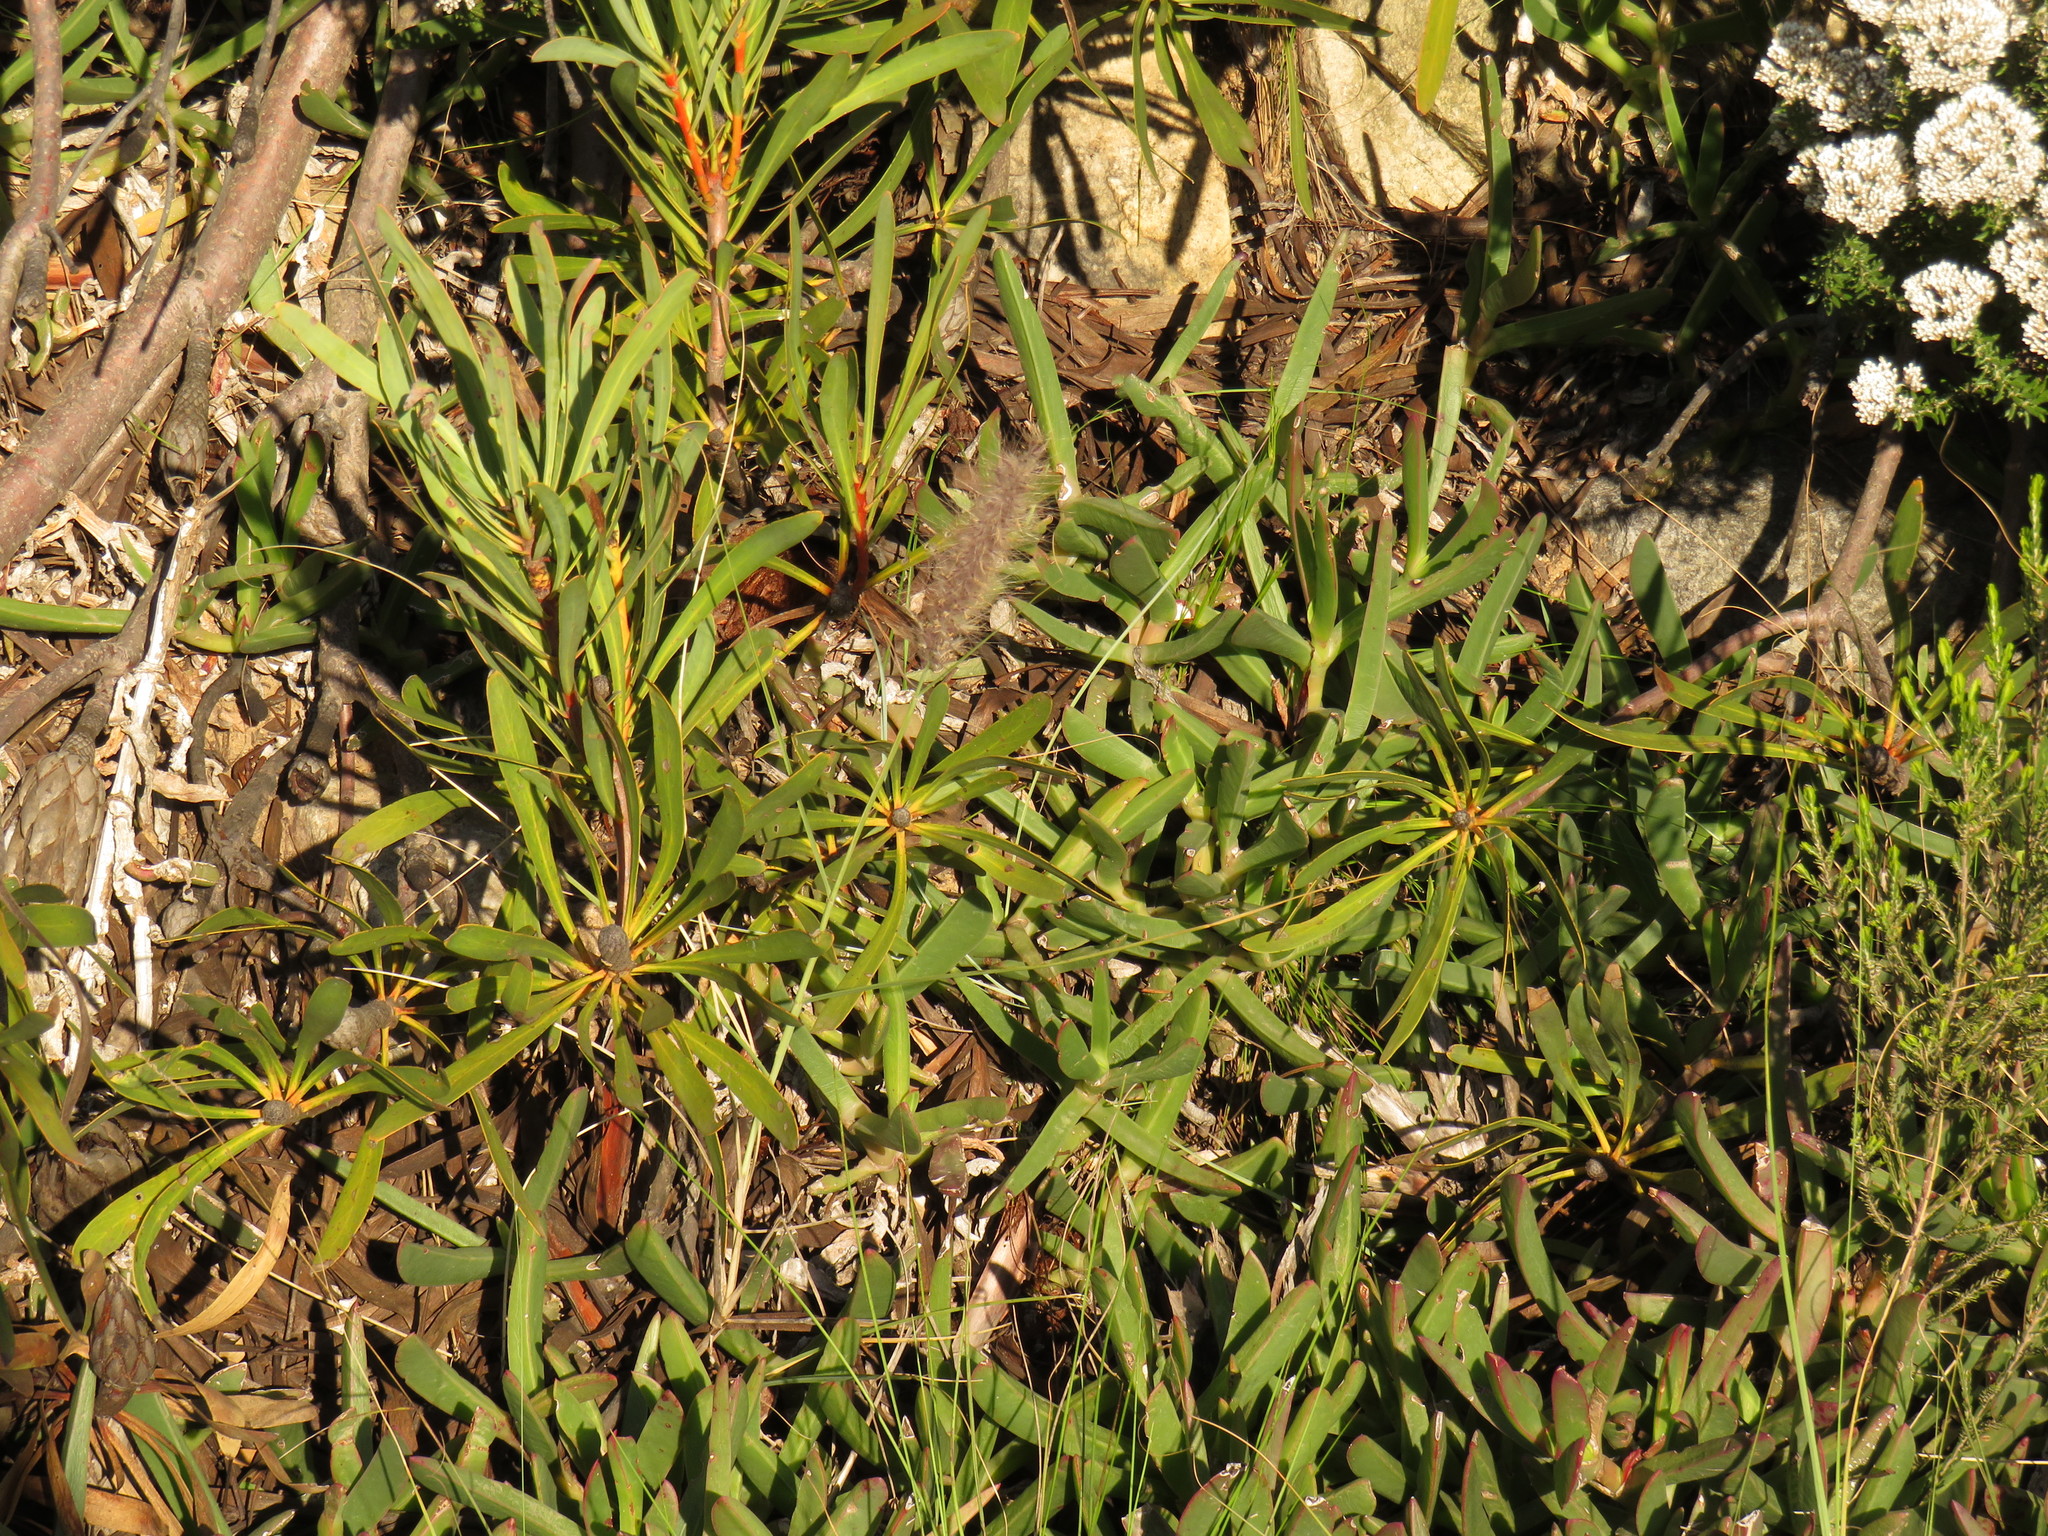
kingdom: Plantae
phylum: Tracheophyta
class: Liliopsida
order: Poales
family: Poaceae
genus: Cenchrus
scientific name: Cenchrus setaceus
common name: Crimson fountaingrass
